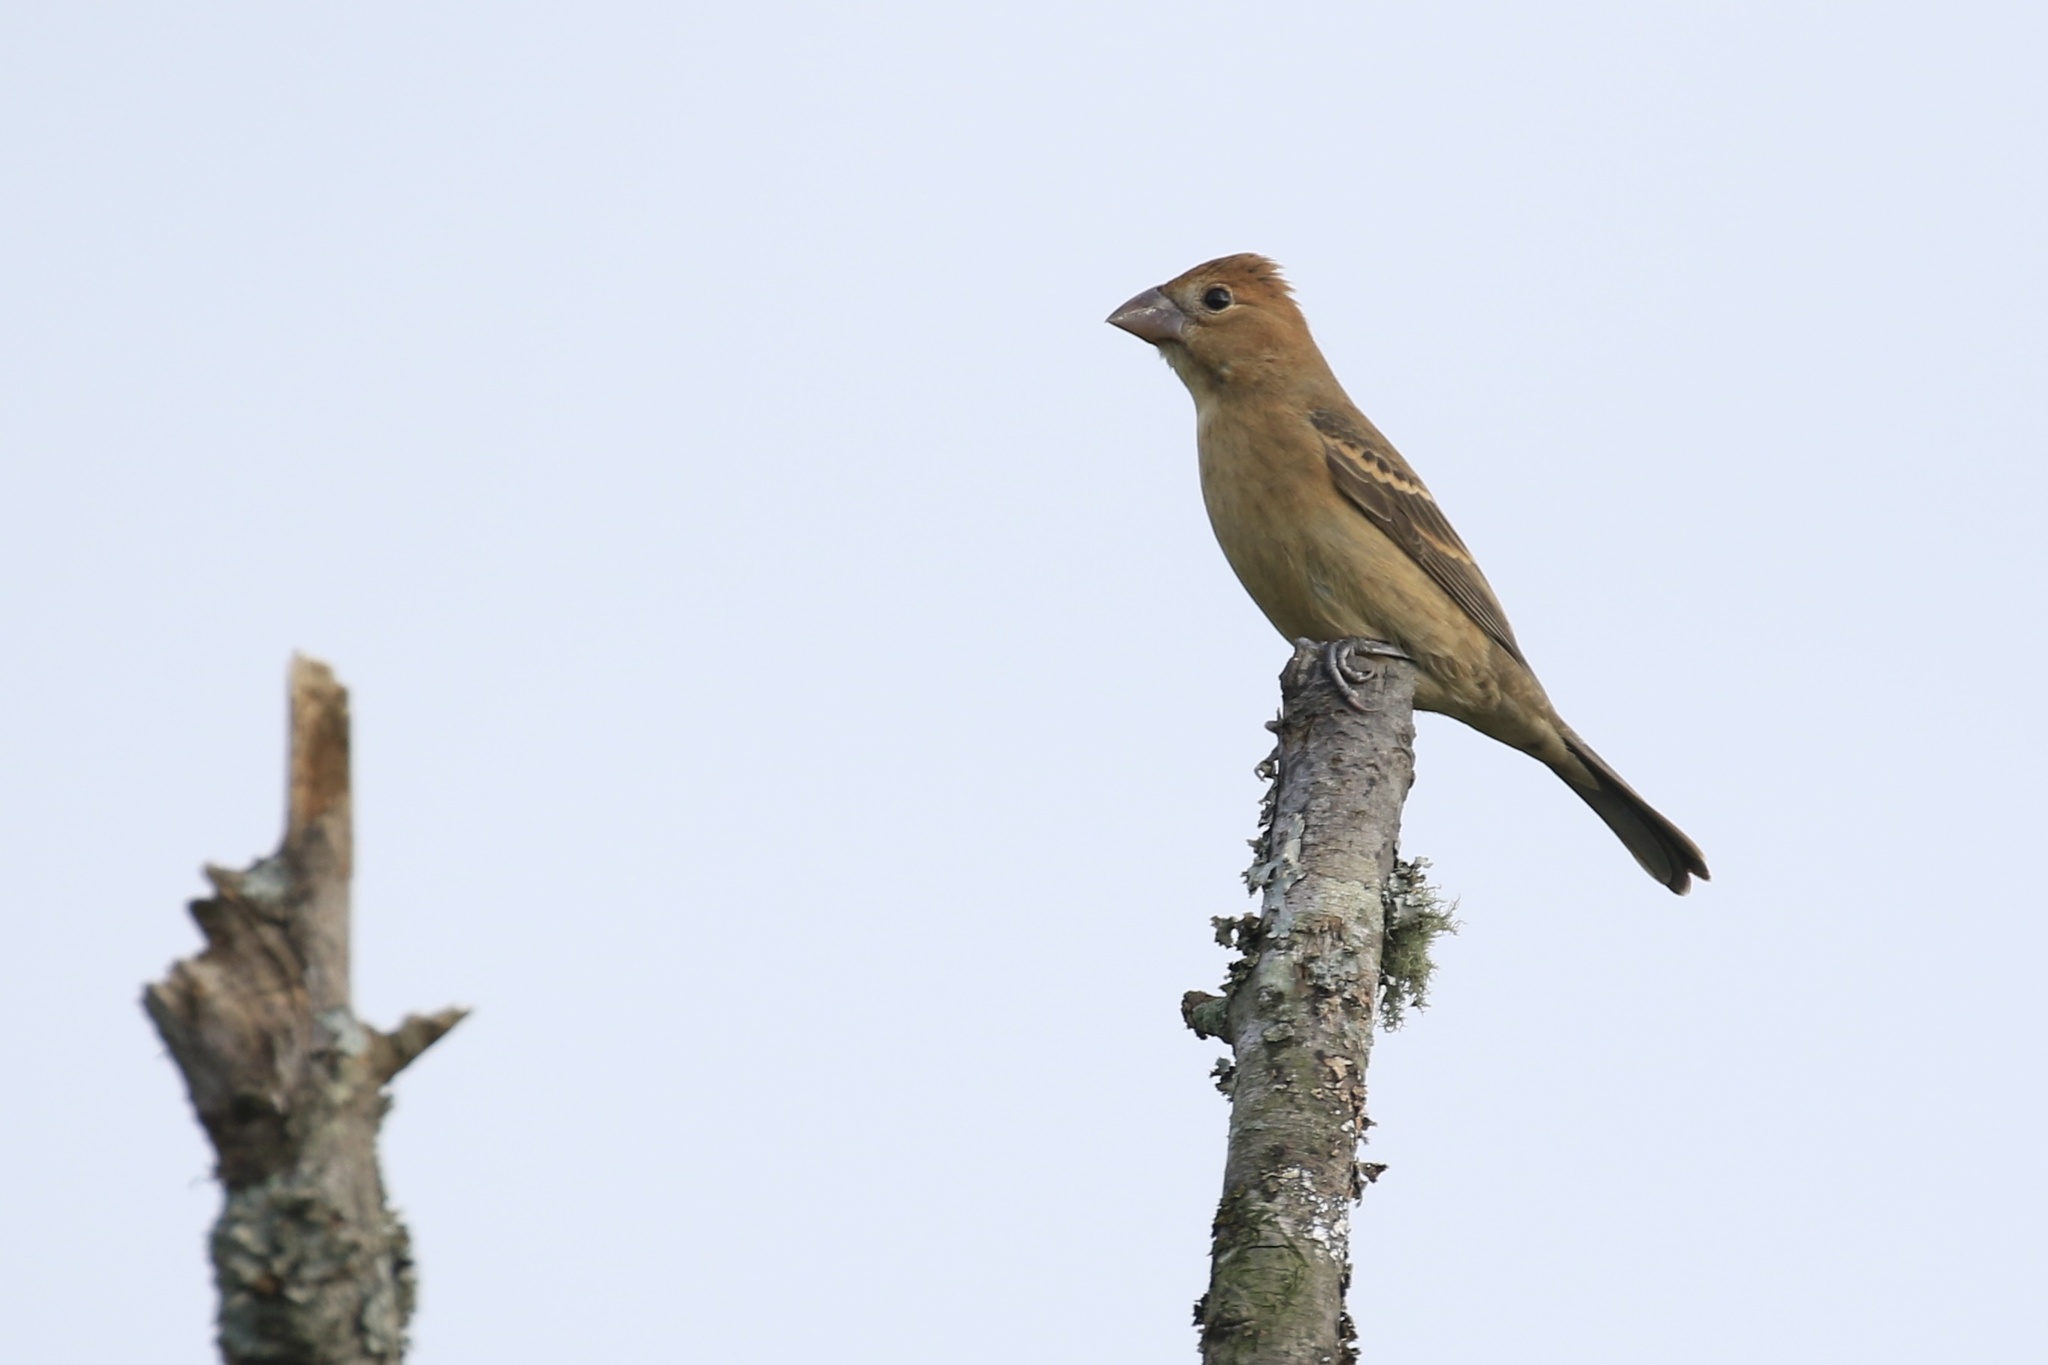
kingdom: Animalia
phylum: Chordata
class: Aves
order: Passeriformes
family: Cardinalidae
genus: Passerina
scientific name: Passerina caerulea
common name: Blue grosbeak
